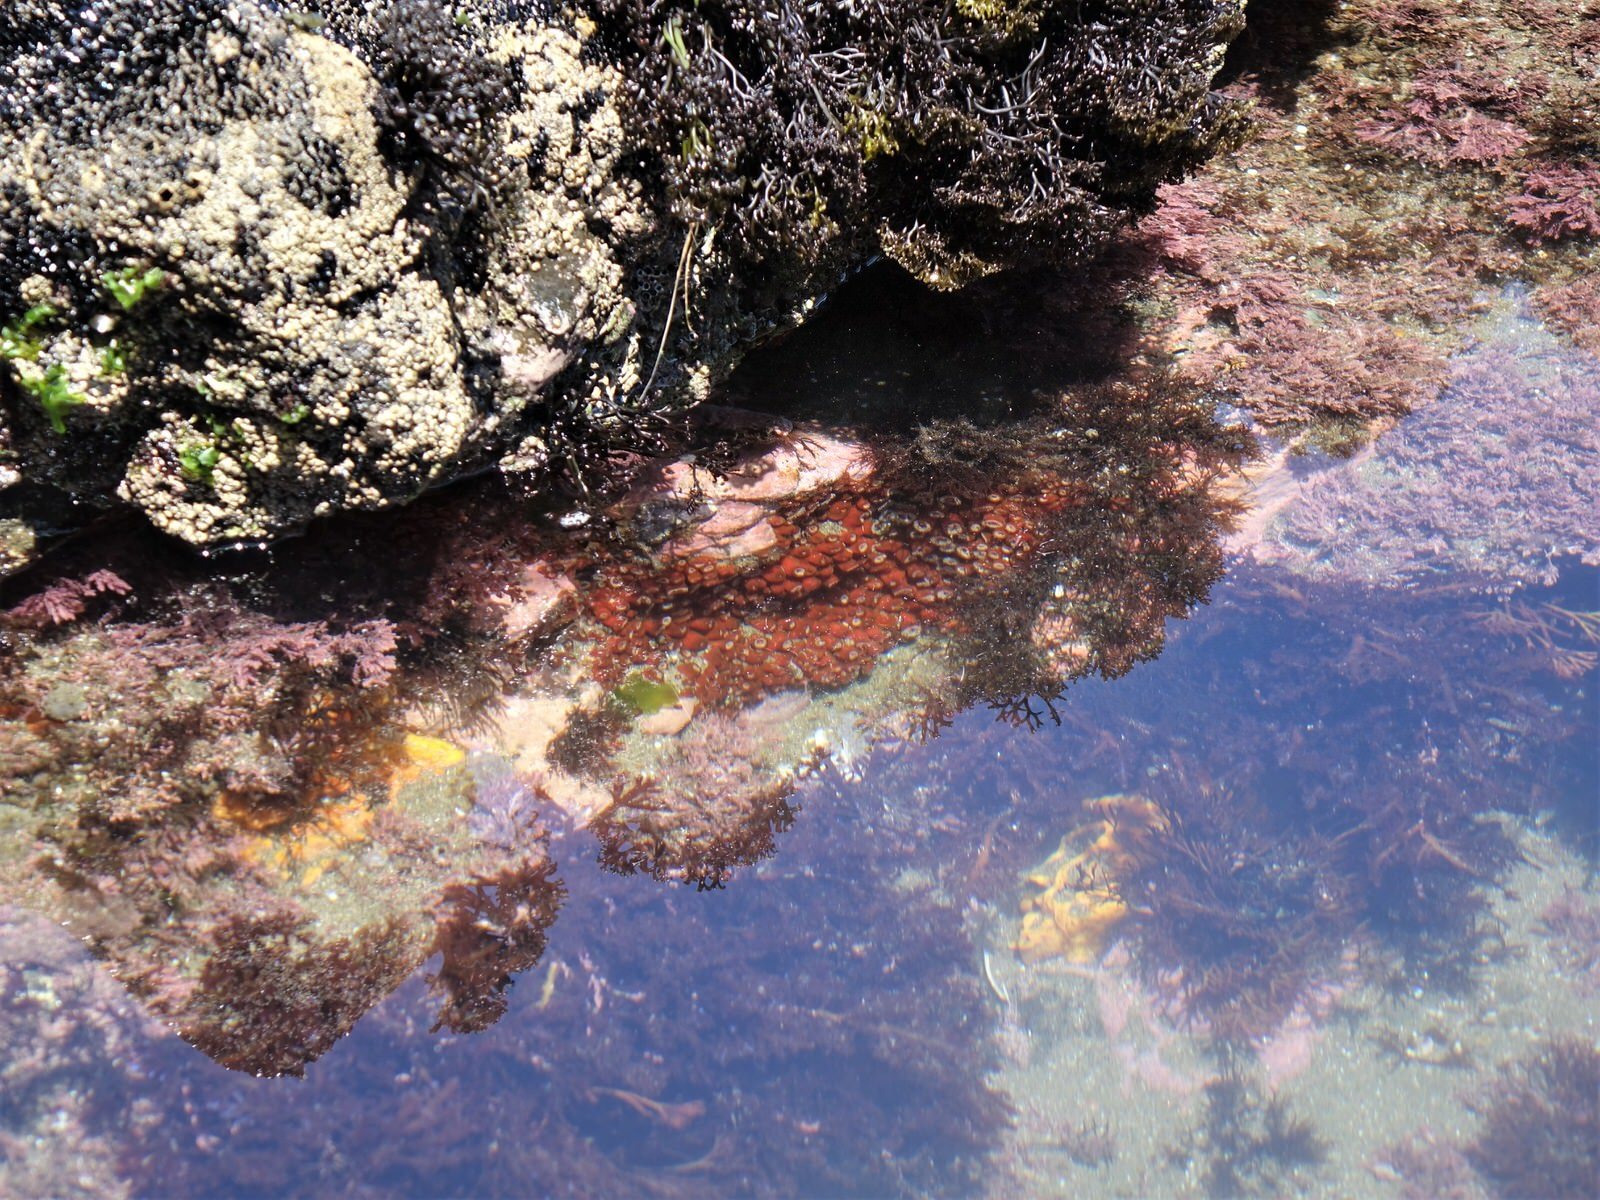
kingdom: Animalia
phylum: Cnidaria
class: Anthozoa
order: Corallimorpharia
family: Corallimorphidae
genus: Corynactis
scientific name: Corynactis australis
